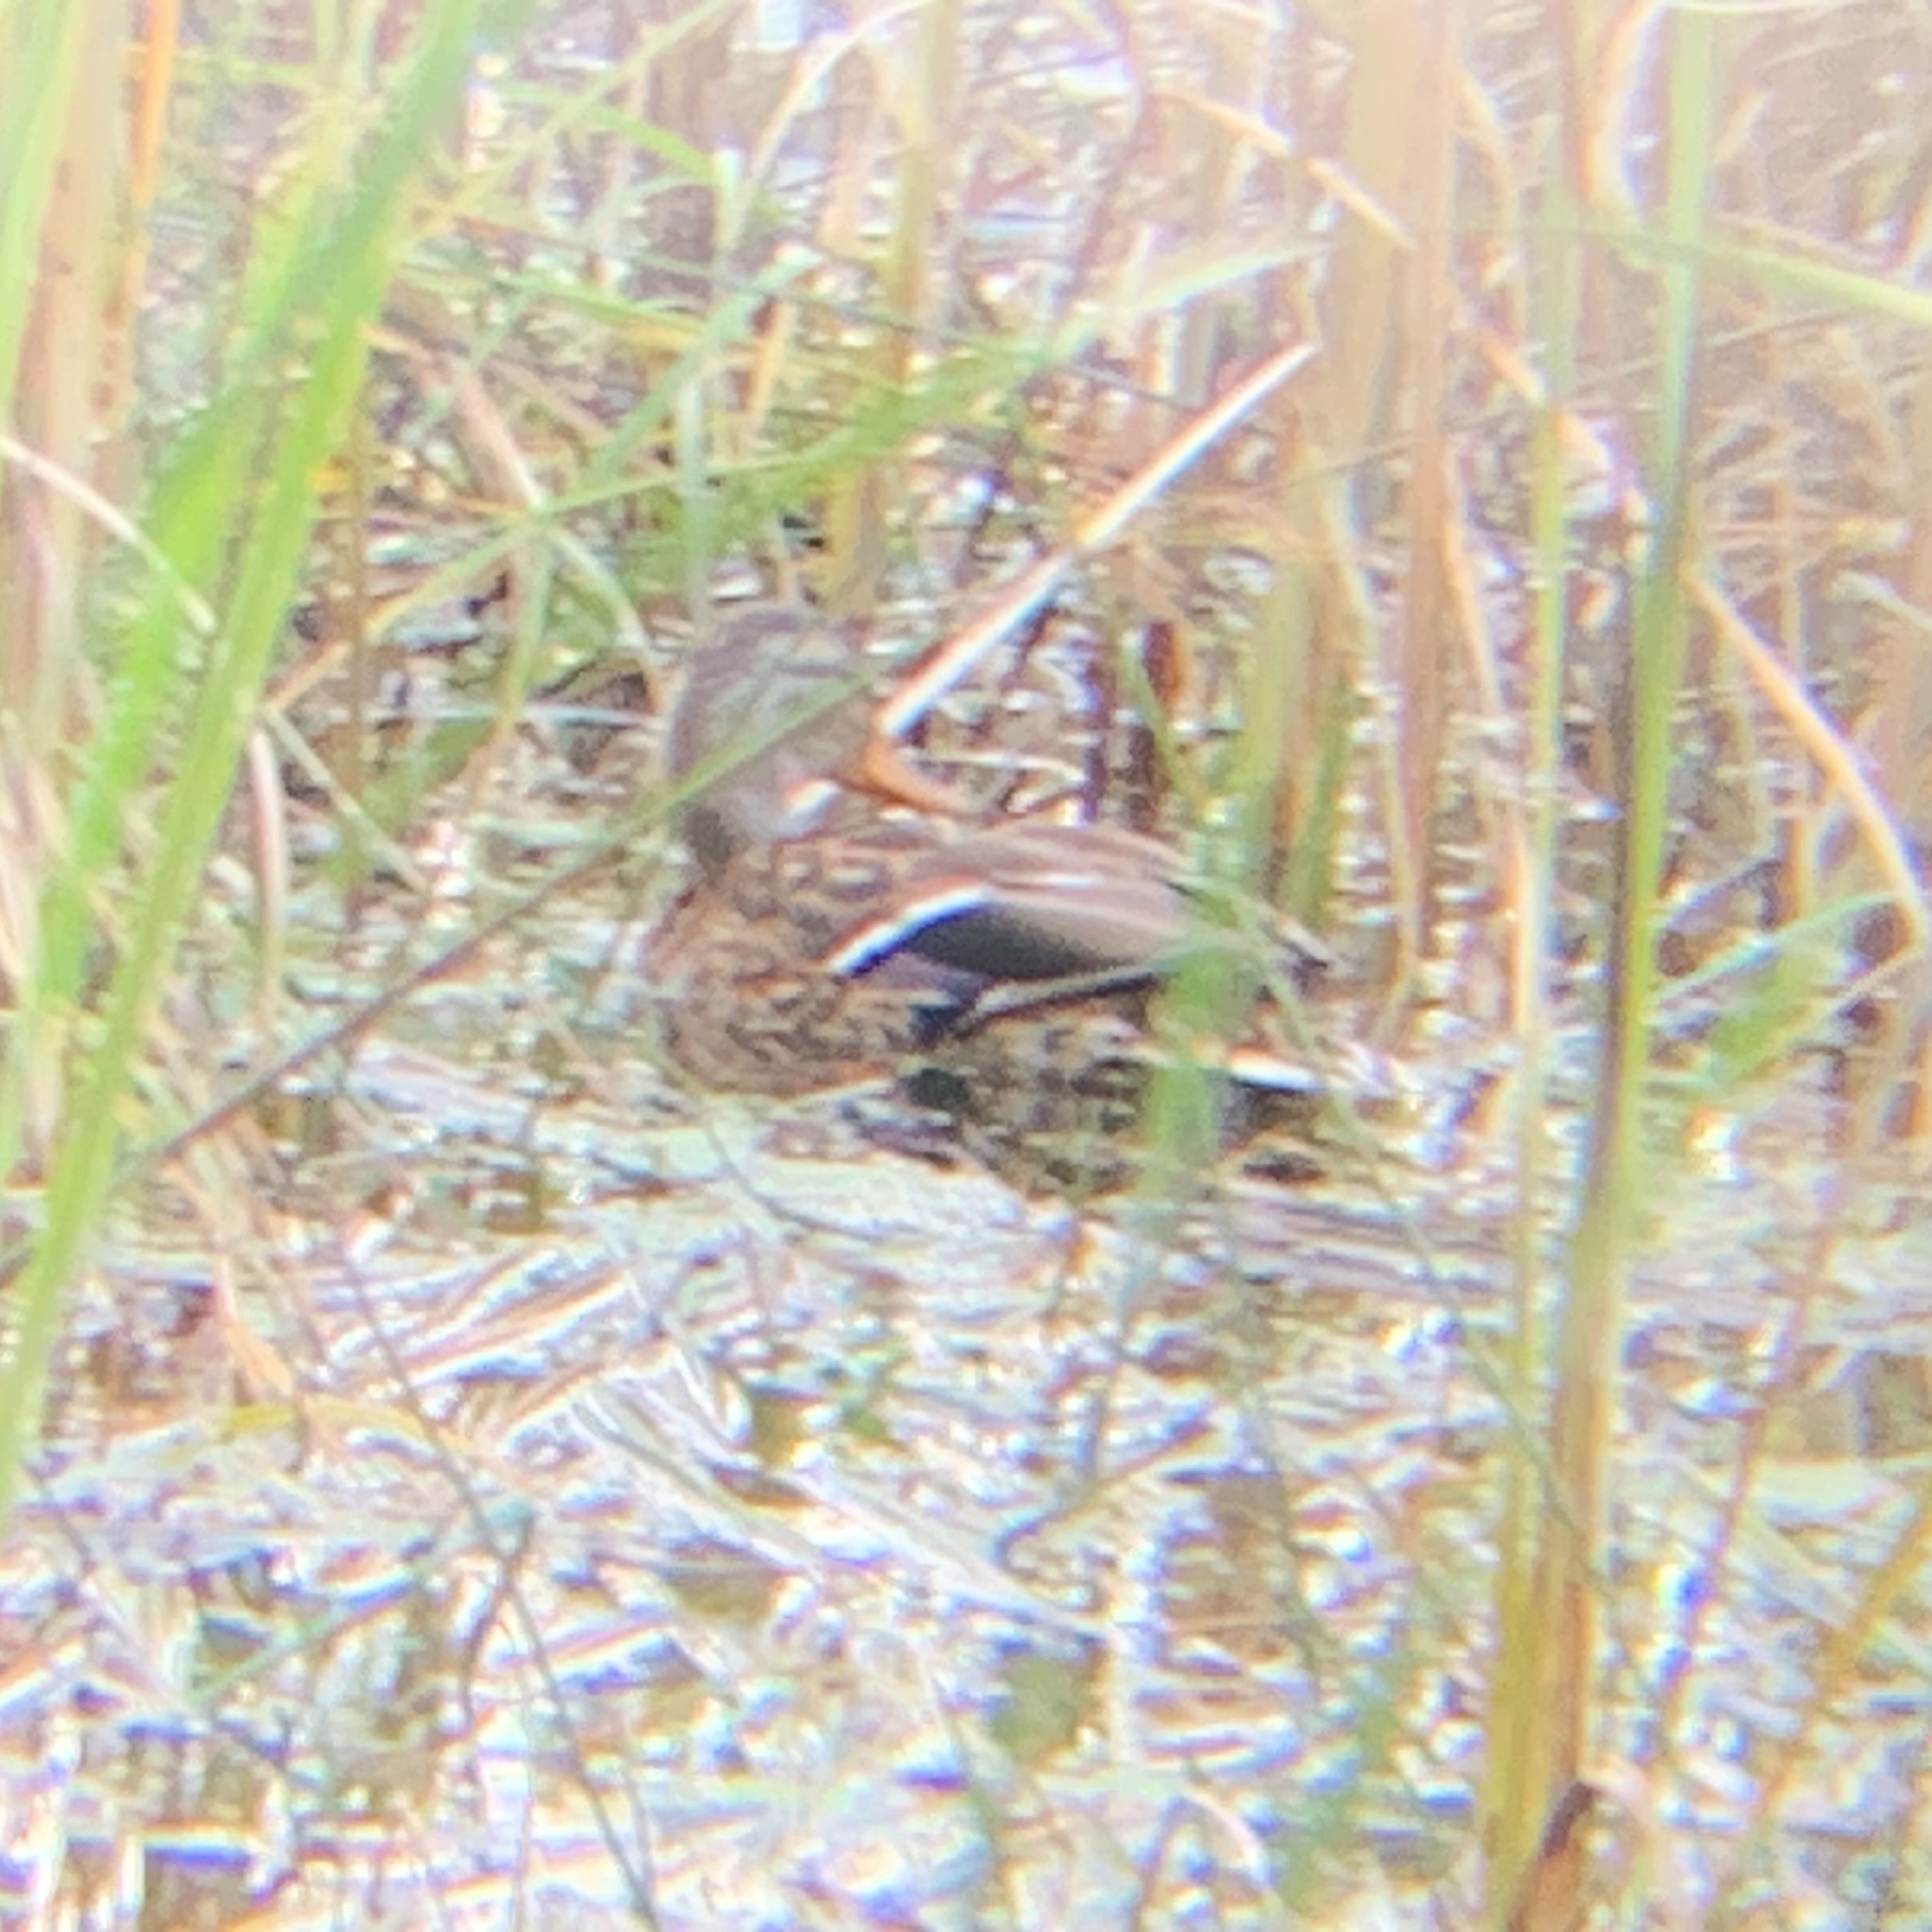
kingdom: Animalia
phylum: Chordata
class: Aves
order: Anseriformes
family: Anatidae
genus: Anas
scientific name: Anas platyrhynchos
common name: Mallard
